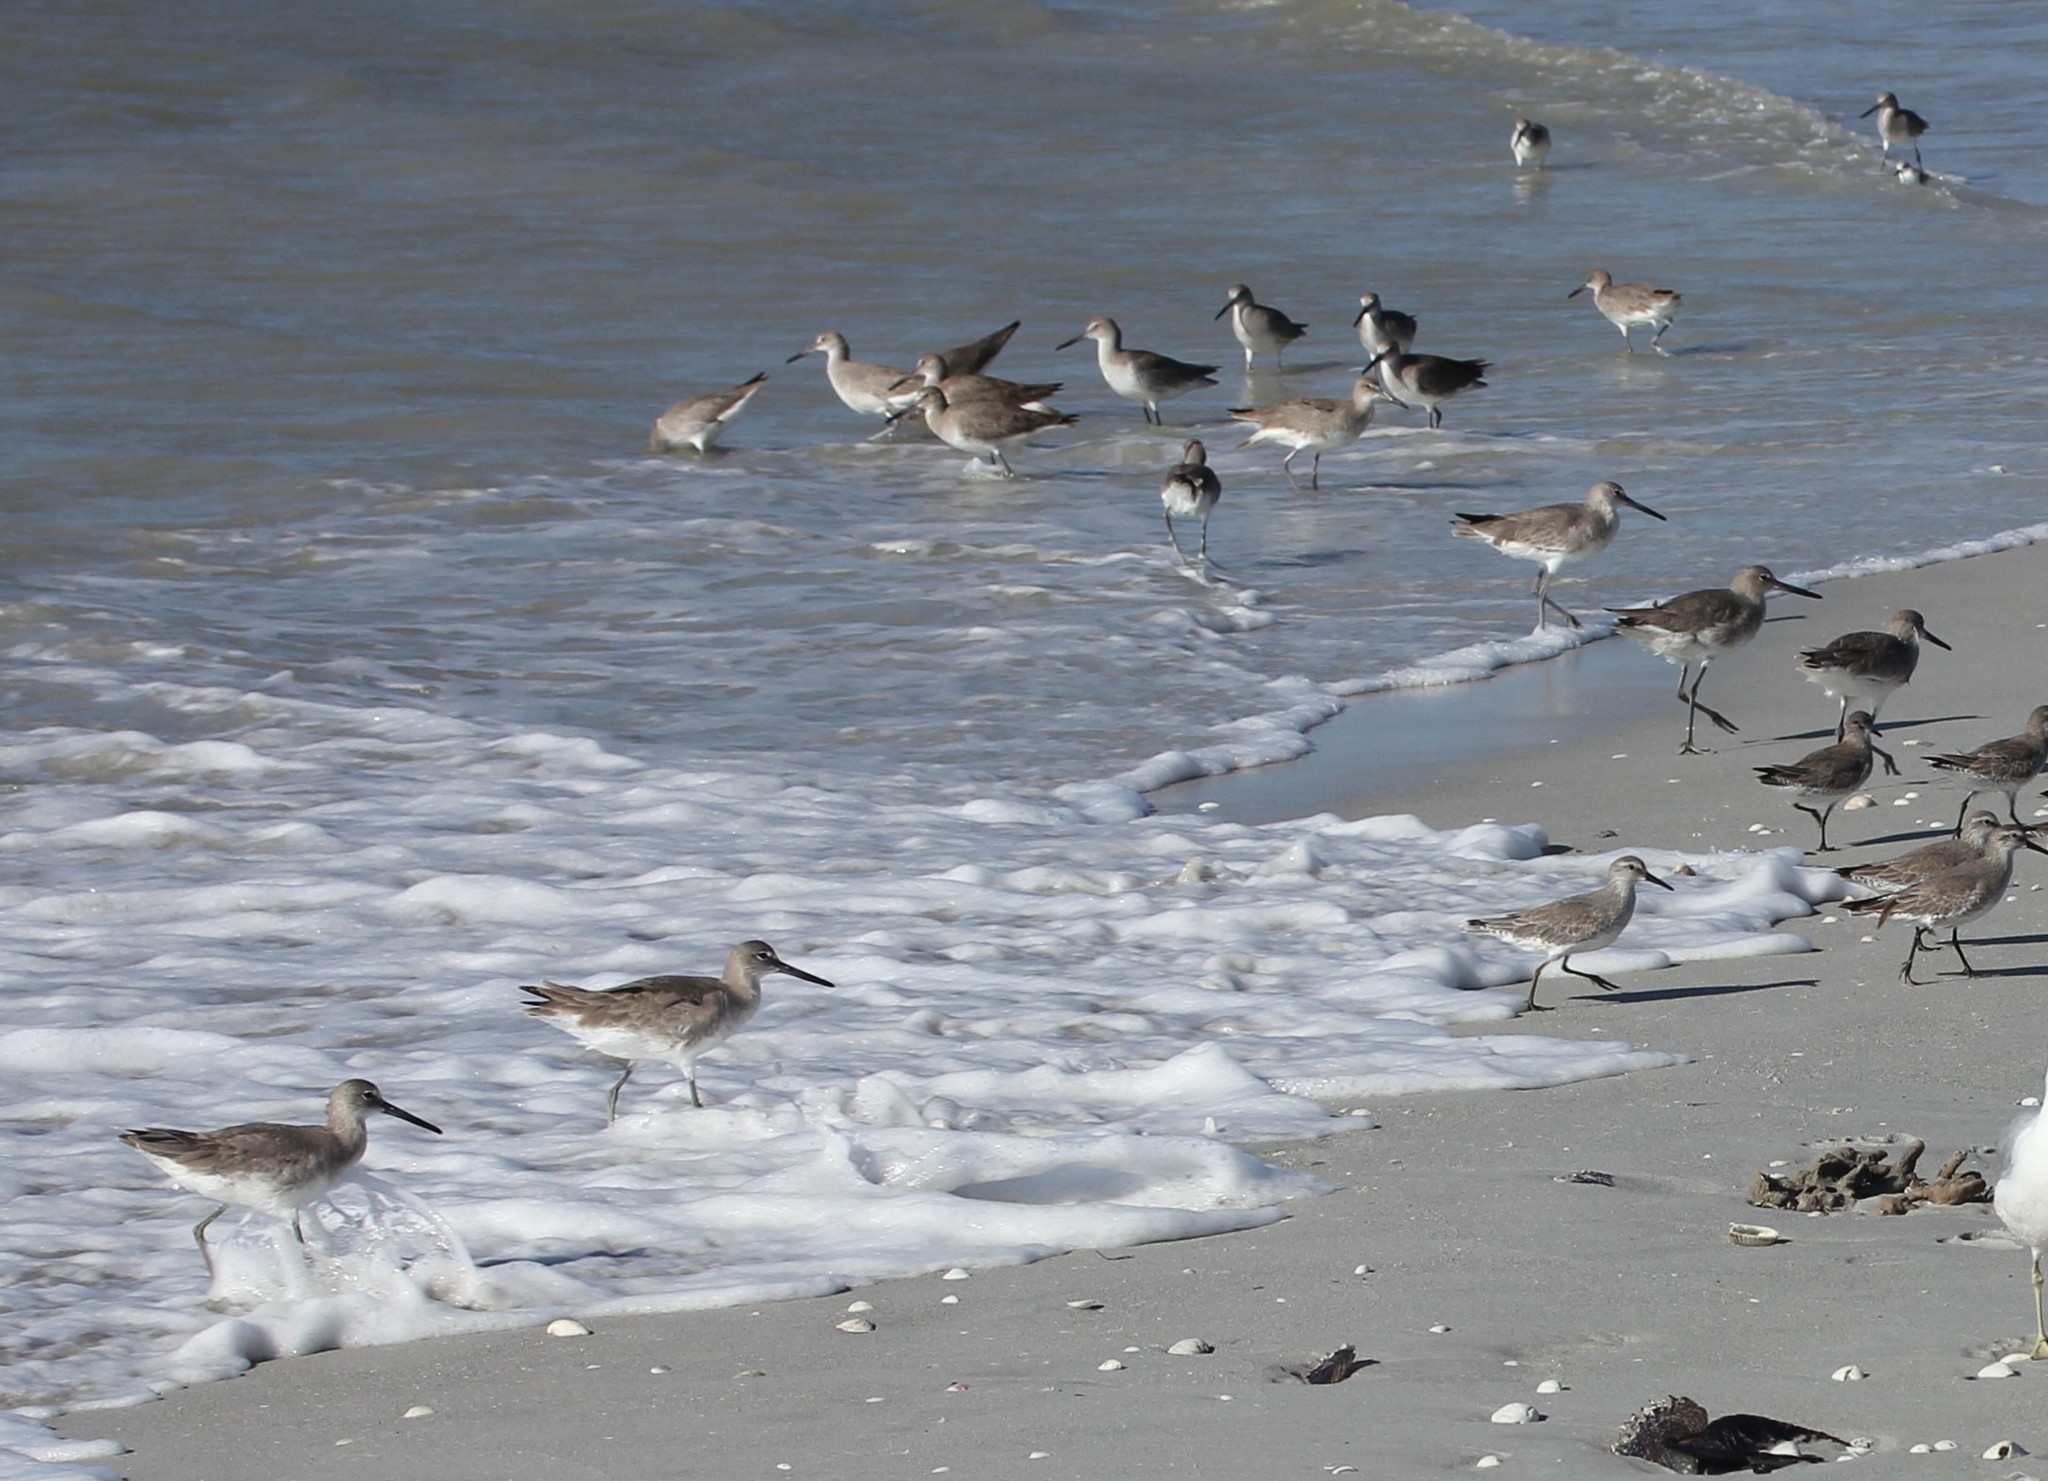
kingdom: Animalia
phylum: Chordata
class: Aves
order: Charadriiformes
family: Scolopacidae
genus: Tringa
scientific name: Tringa semipalmata
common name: Willet
